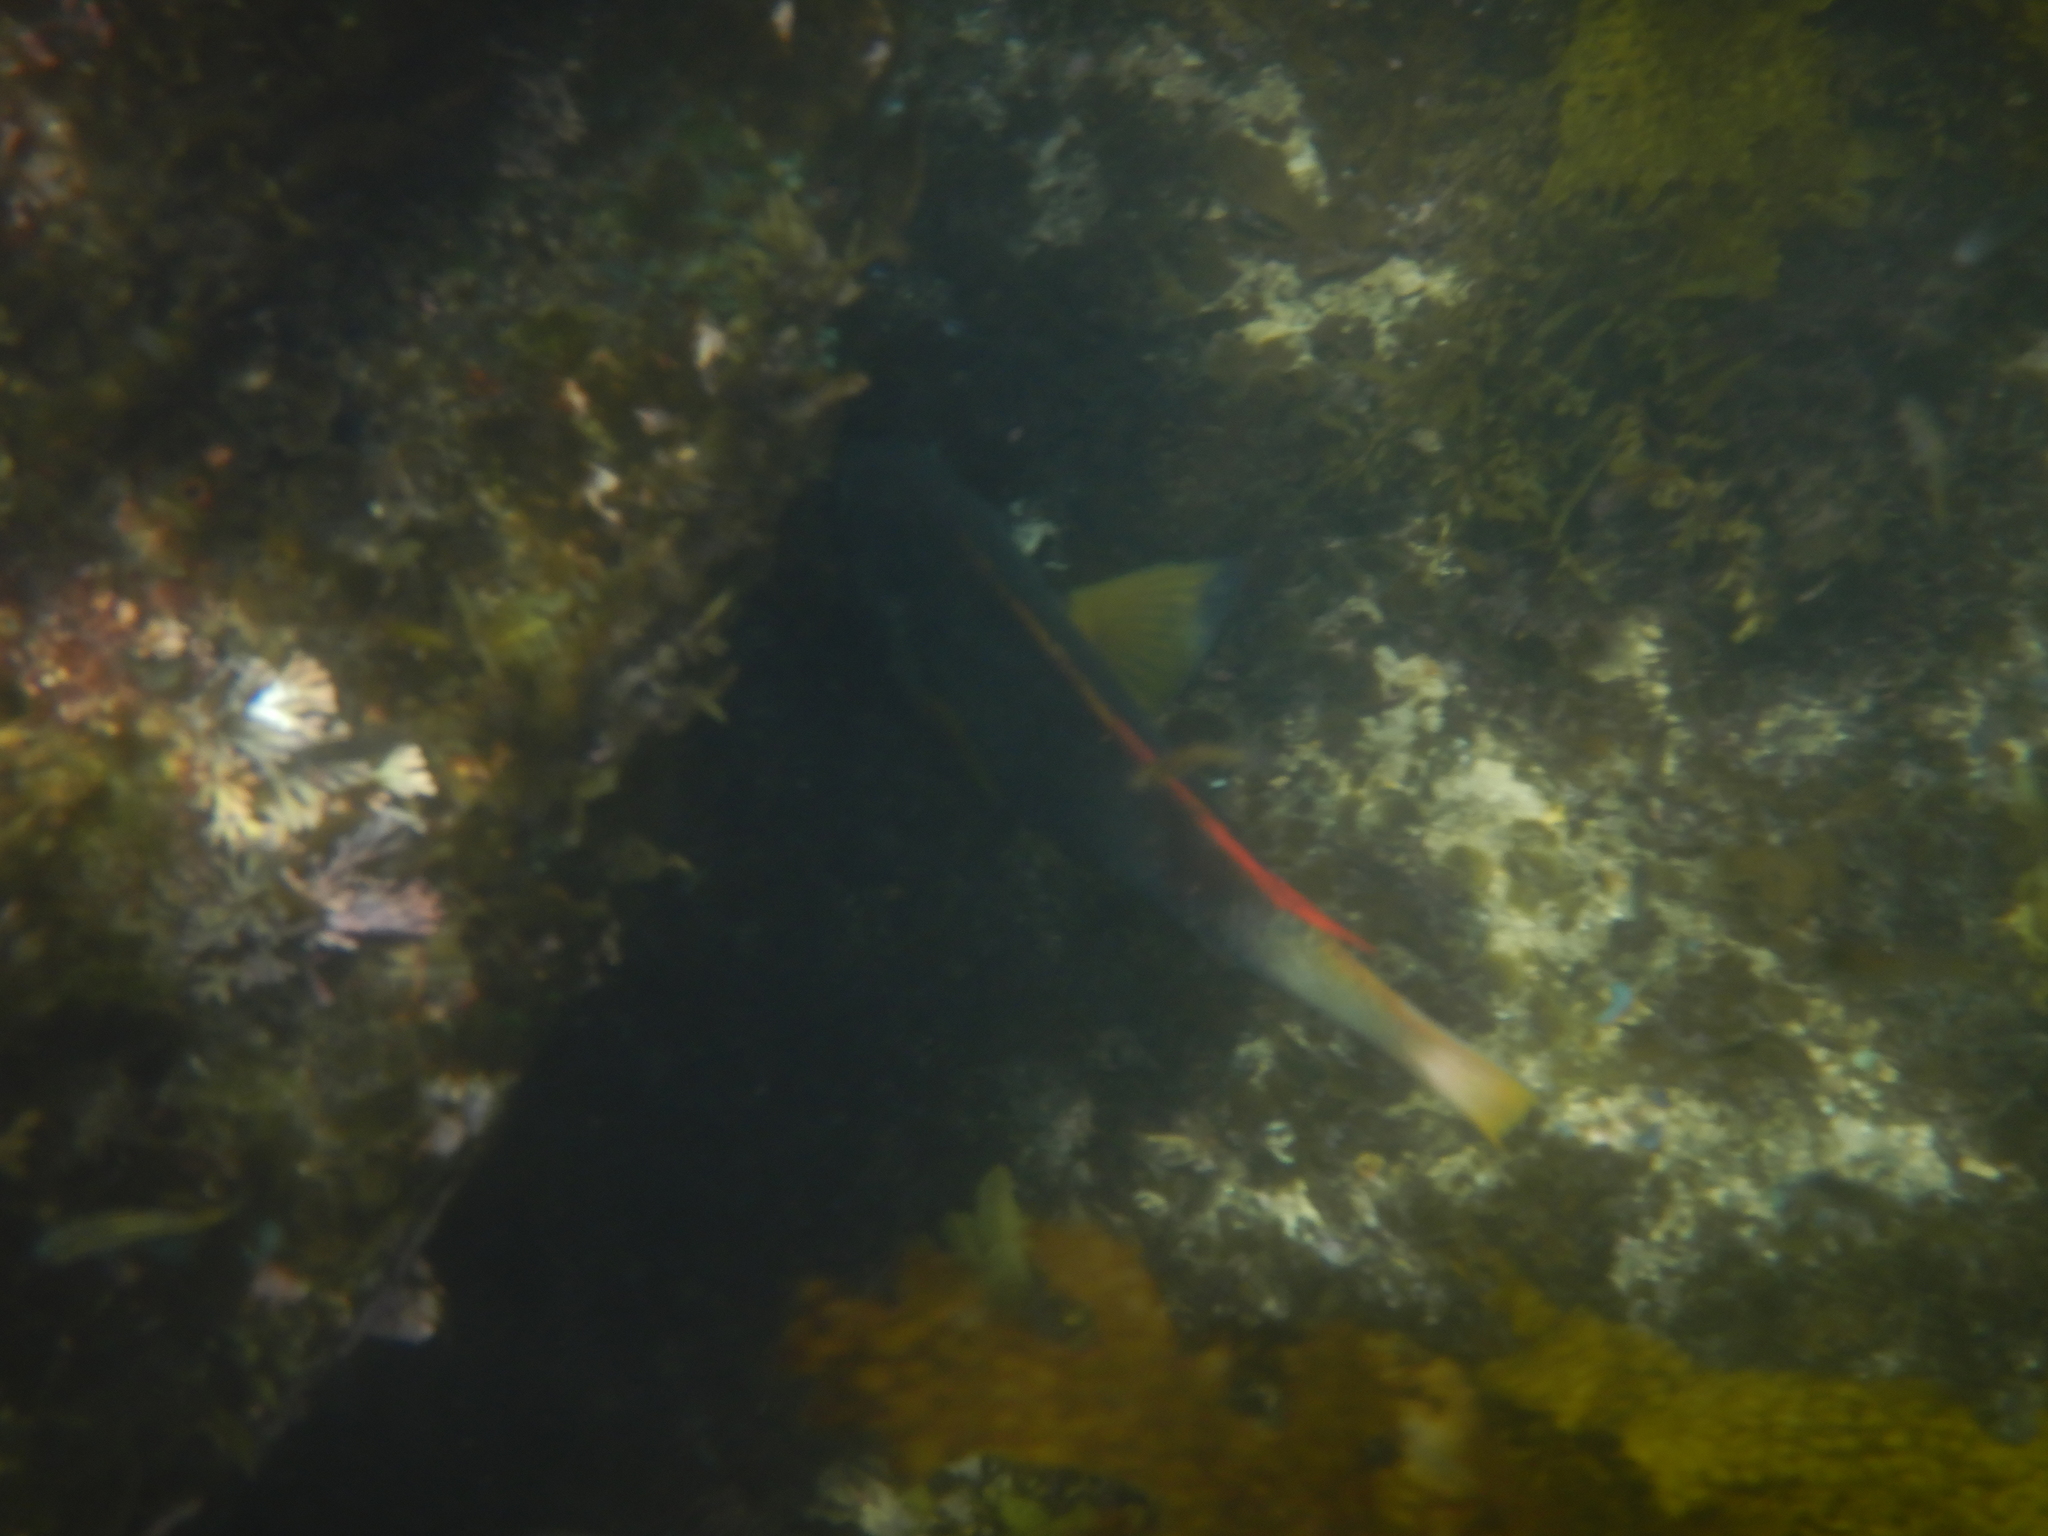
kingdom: Animalia
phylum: Chordata
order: Perciformes
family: Labridae
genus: Notolabrus
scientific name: Notolabrus gymnogenis
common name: Crimson banded wrasse
